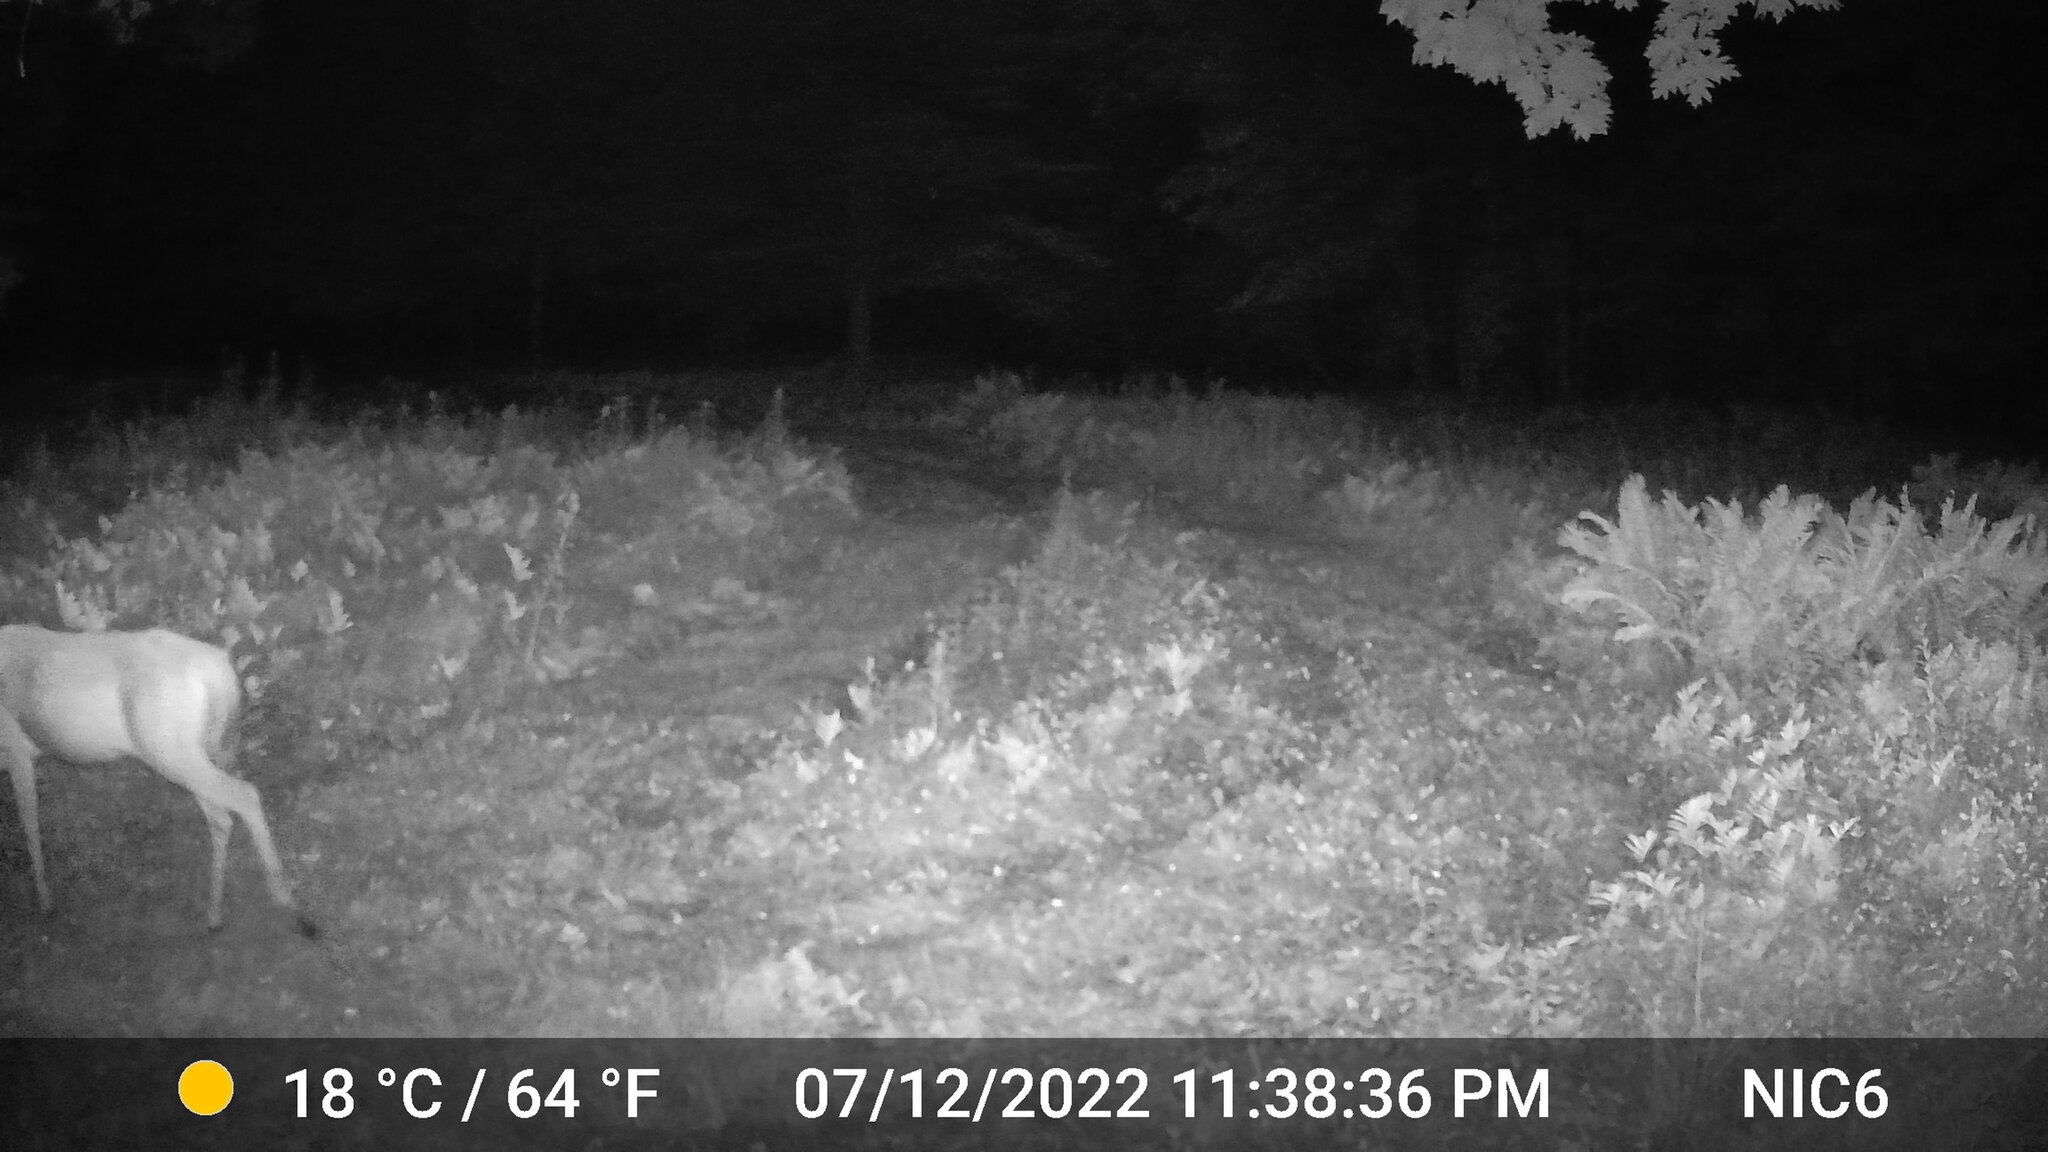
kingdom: Animalia
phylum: Chordata
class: Mammalia
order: Artiodactyla
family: Cervidae
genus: Odocoileus
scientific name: Odocoileus virginianus
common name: White-tailed deer
